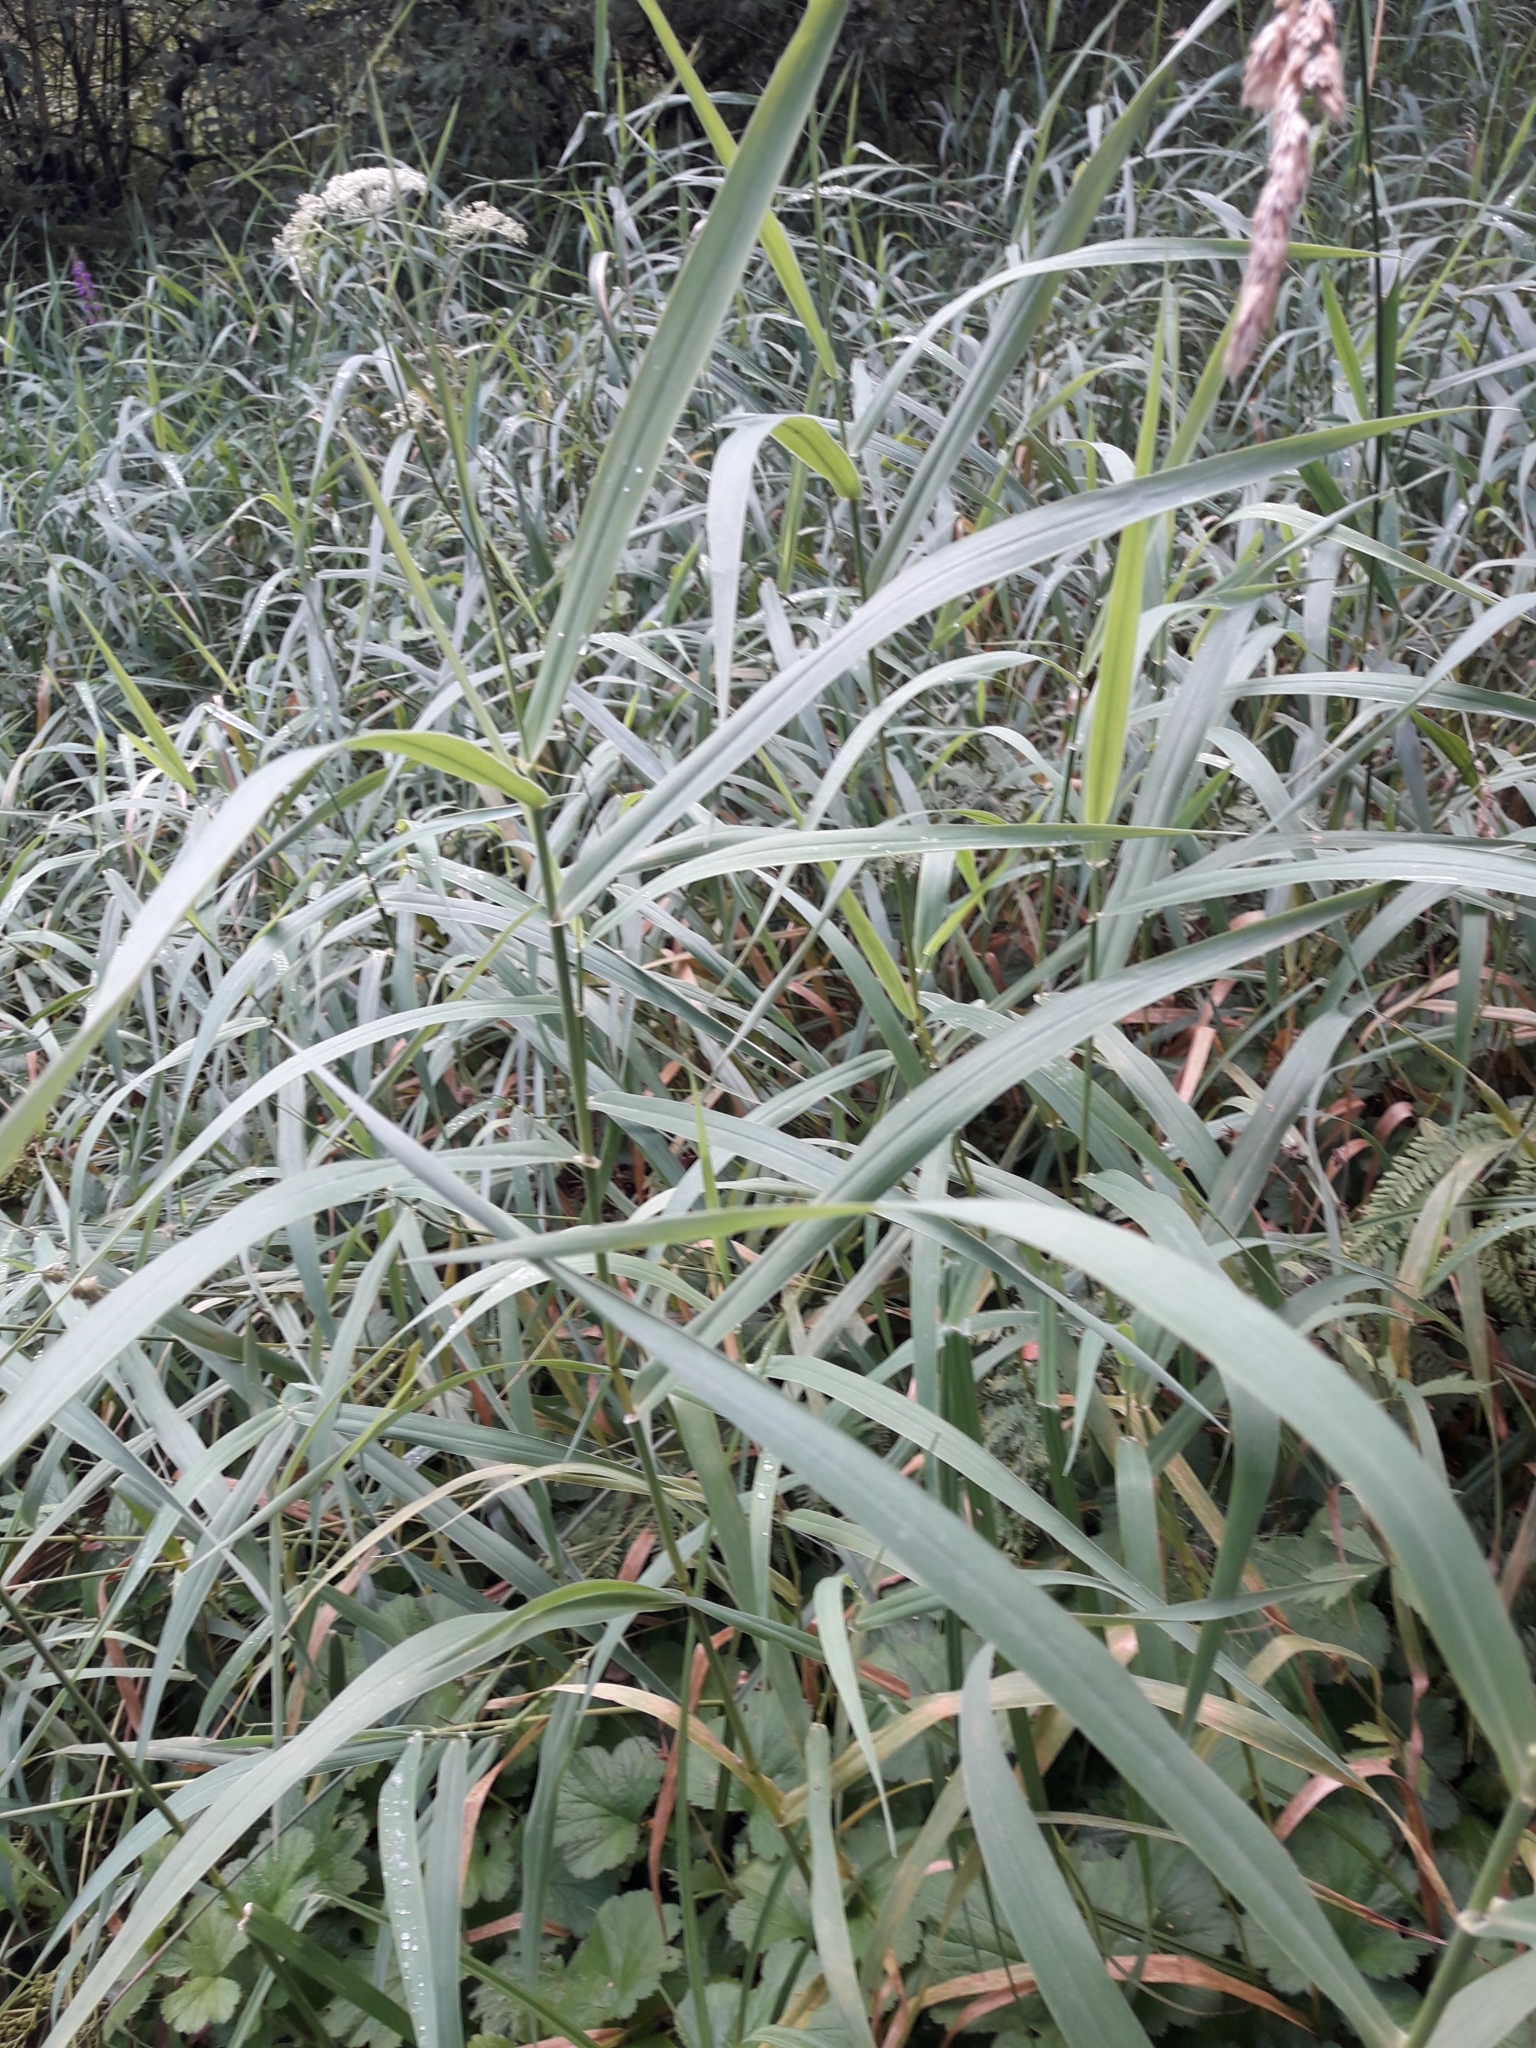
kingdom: Plantae
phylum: Tracheophyta
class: Liliopsida
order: Poales
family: Poaceae
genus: Phalaris
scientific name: Phalaris arundinacea
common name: Reed canary-grass
